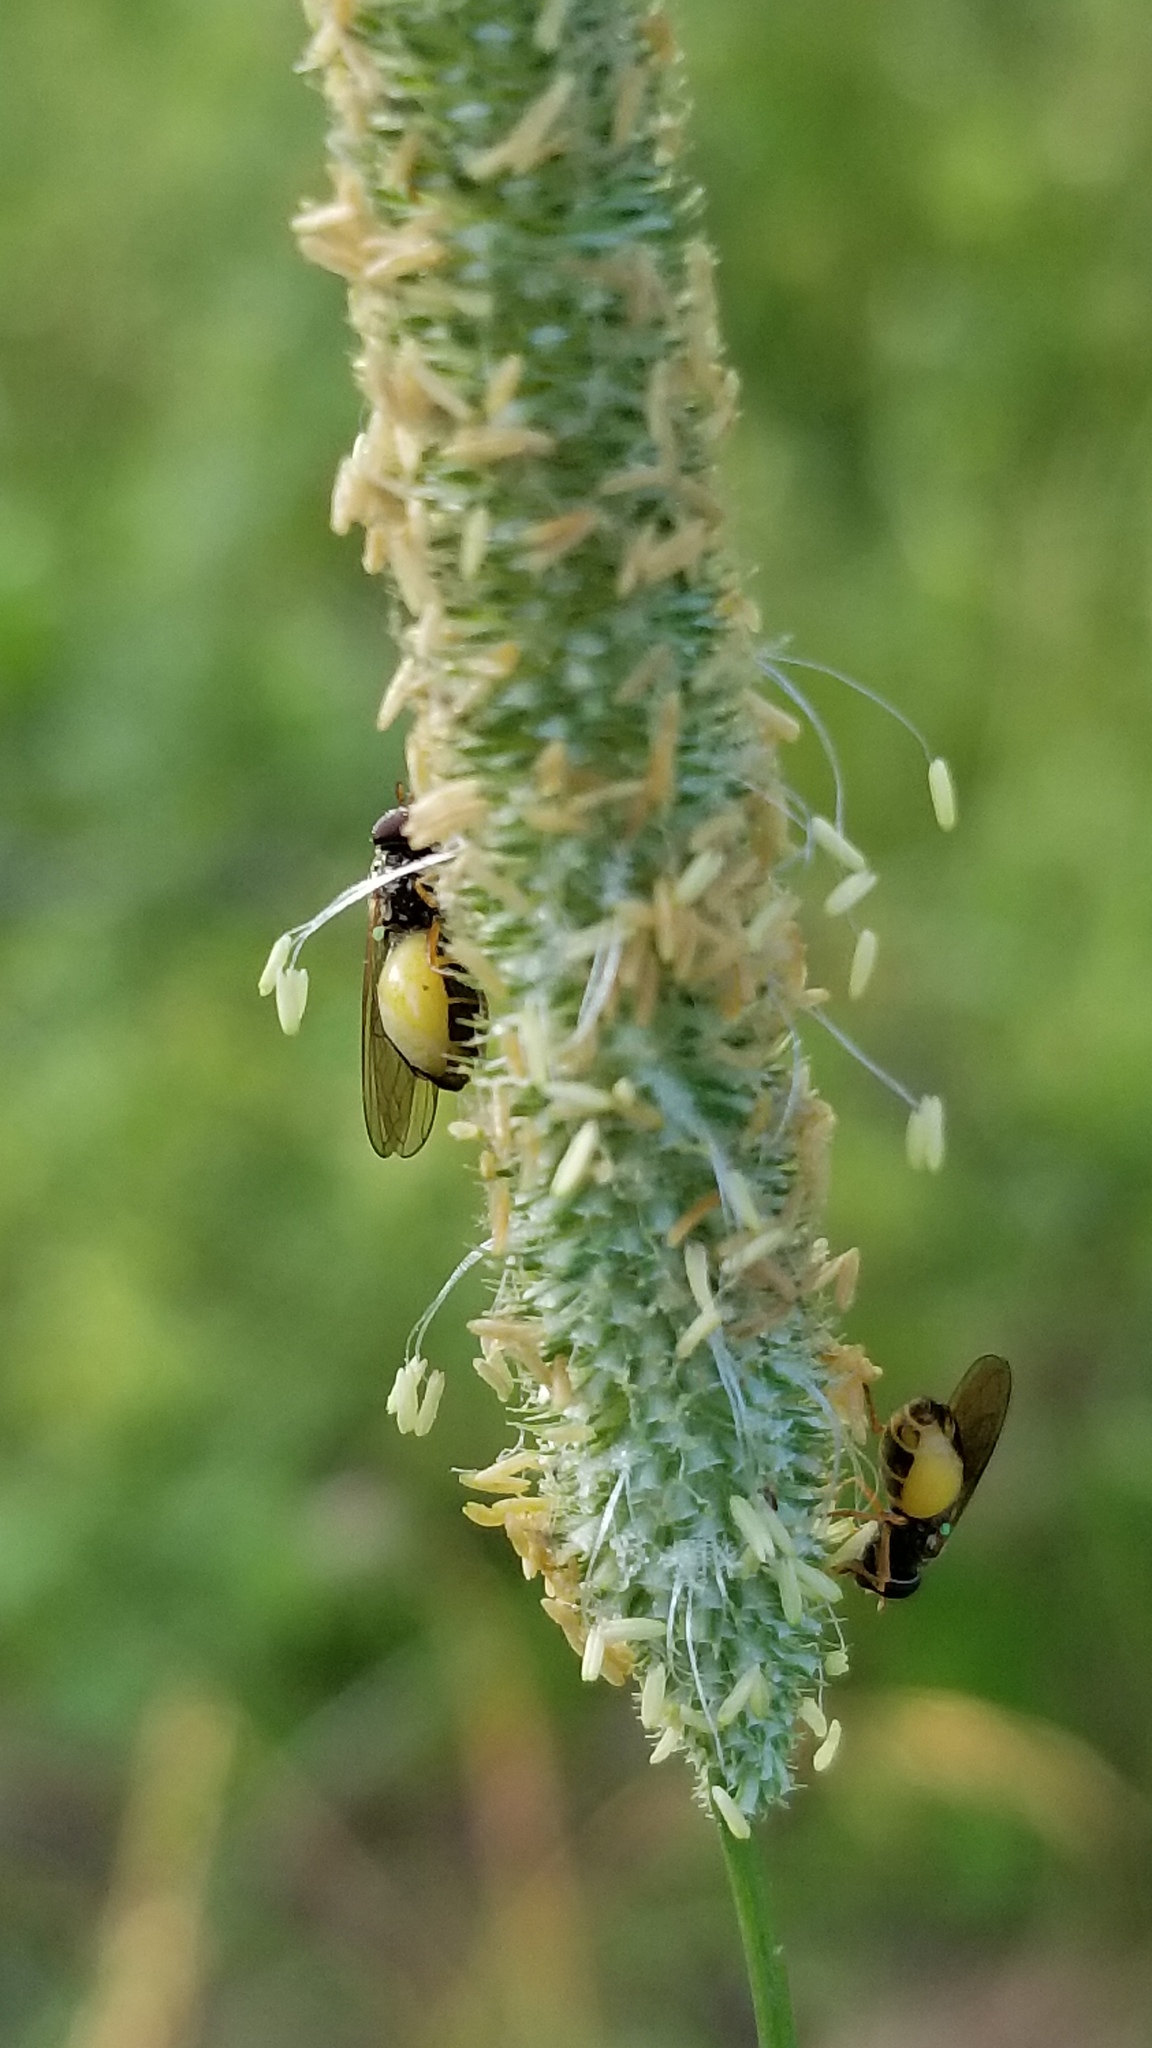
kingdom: Animalia
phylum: Arthropoda
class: Insecta
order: Diptera
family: Syrphidae
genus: Melanostoma
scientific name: Melanostoma mellina
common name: Hover fly
